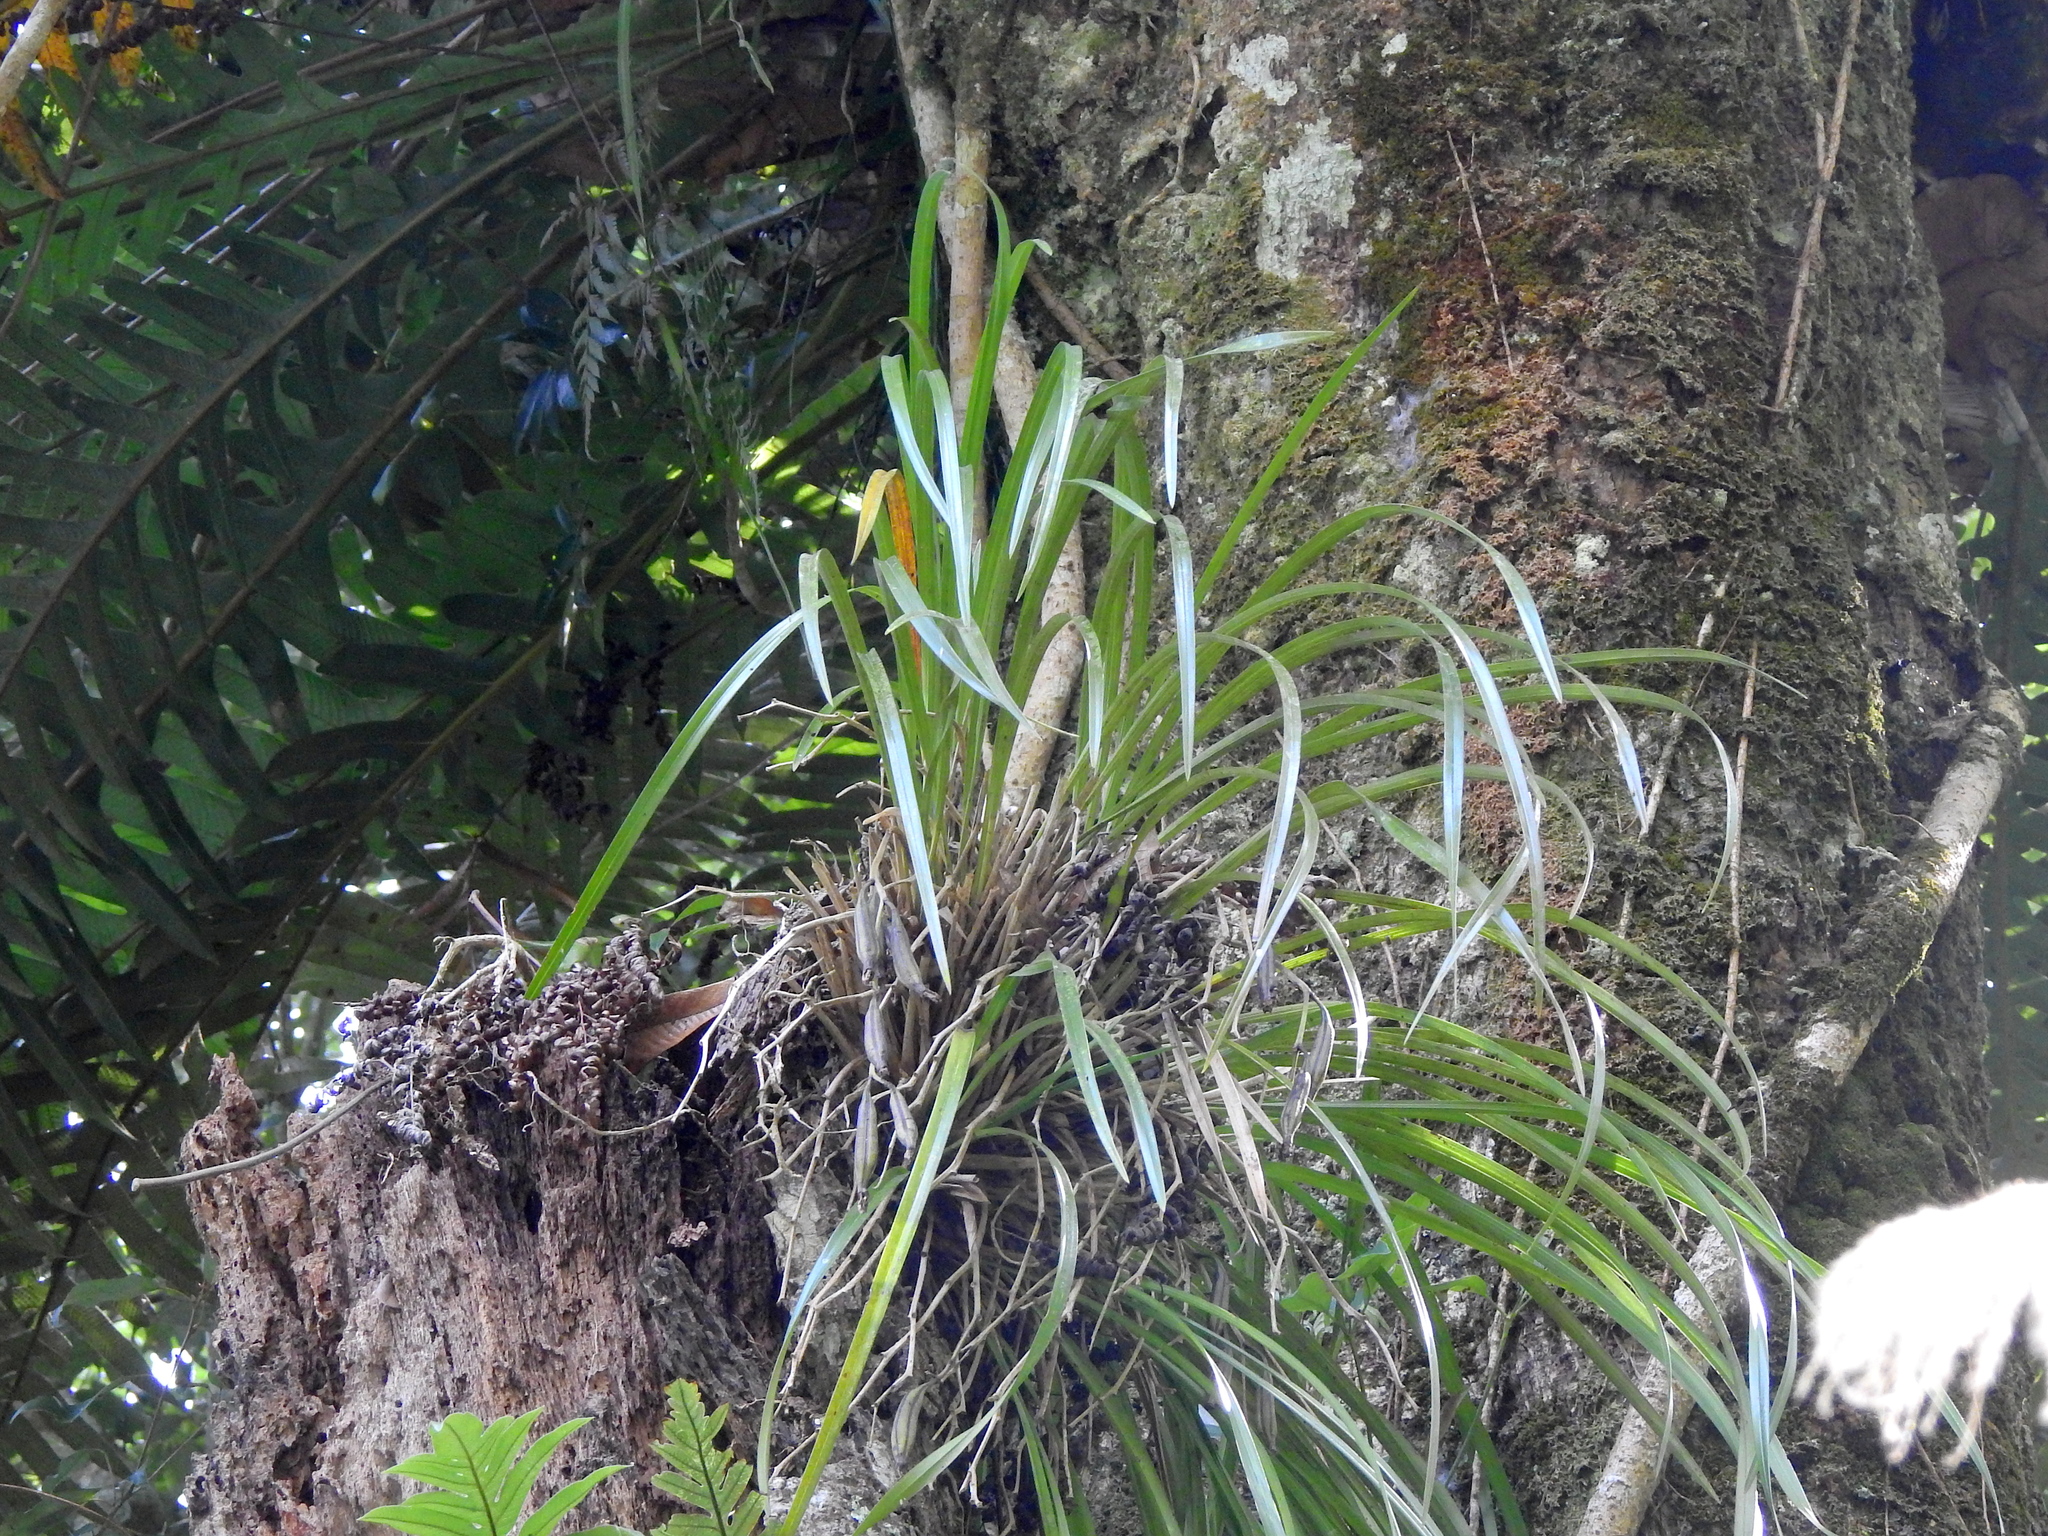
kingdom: Plantae
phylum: Tracheophyta
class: Liliopsida
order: Asparagales
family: Orchidaceae
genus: Cymbidium
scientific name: Cymbidium dayanum
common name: Orchid
